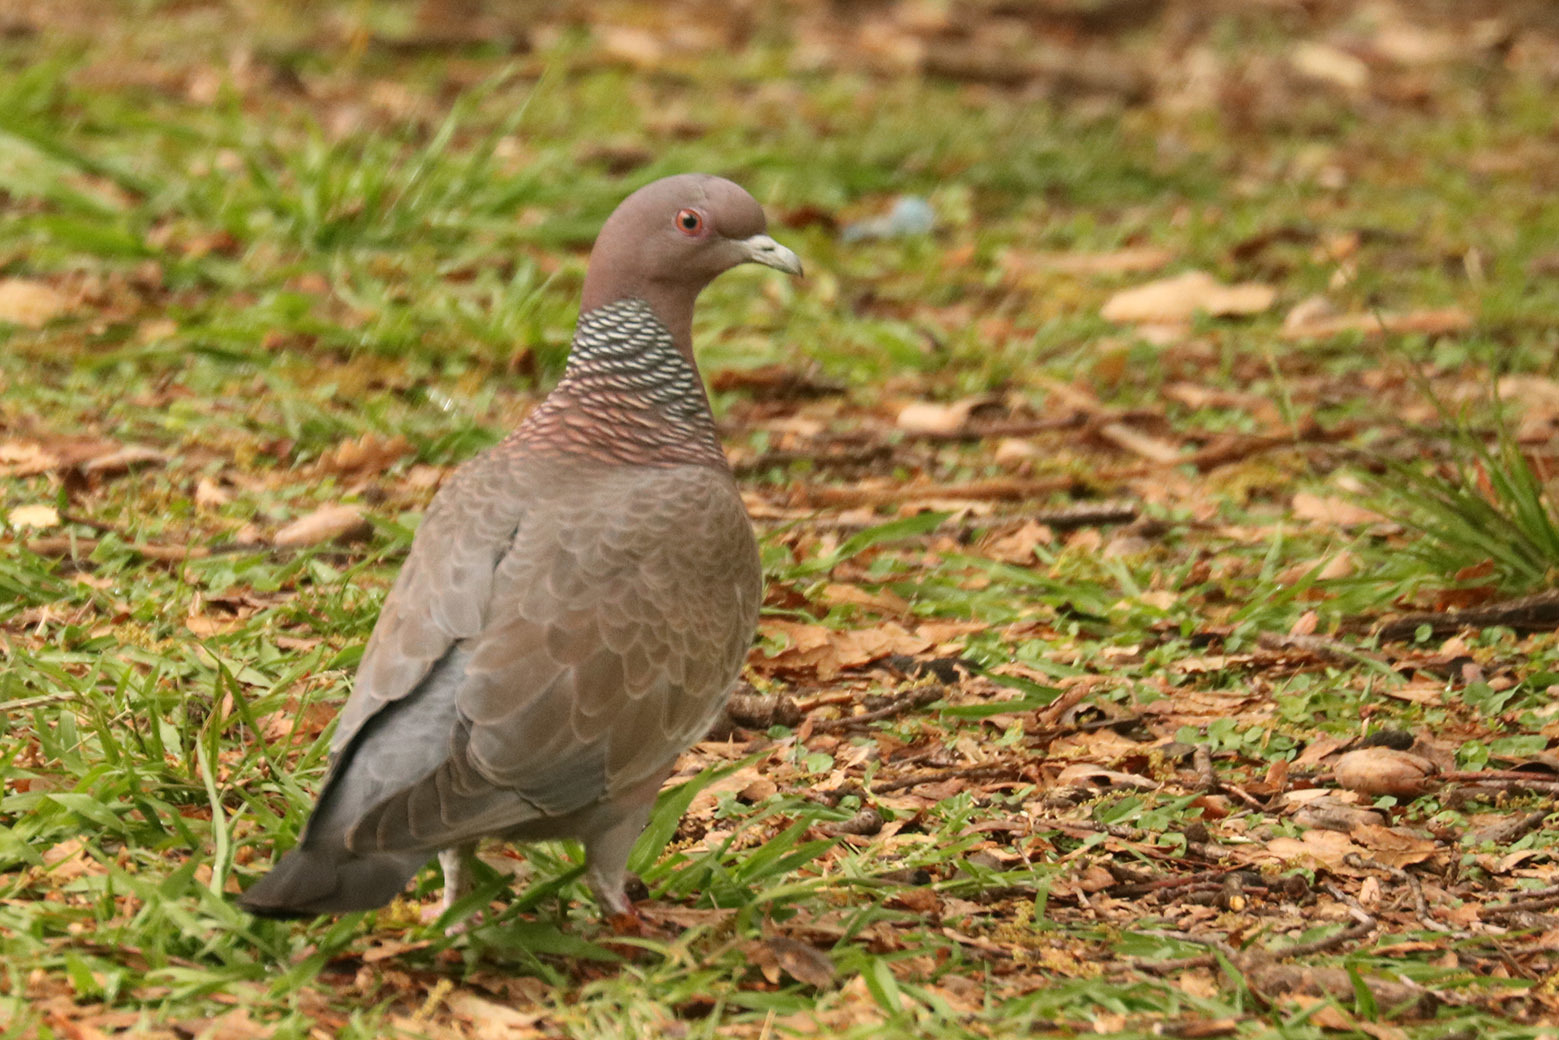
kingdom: Animalia
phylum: Chordata
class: Aves
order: Columbiformes
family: Columbidae
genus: Patagioenas
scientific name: Patagioenas picazuro
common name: Picazuro pigeon
